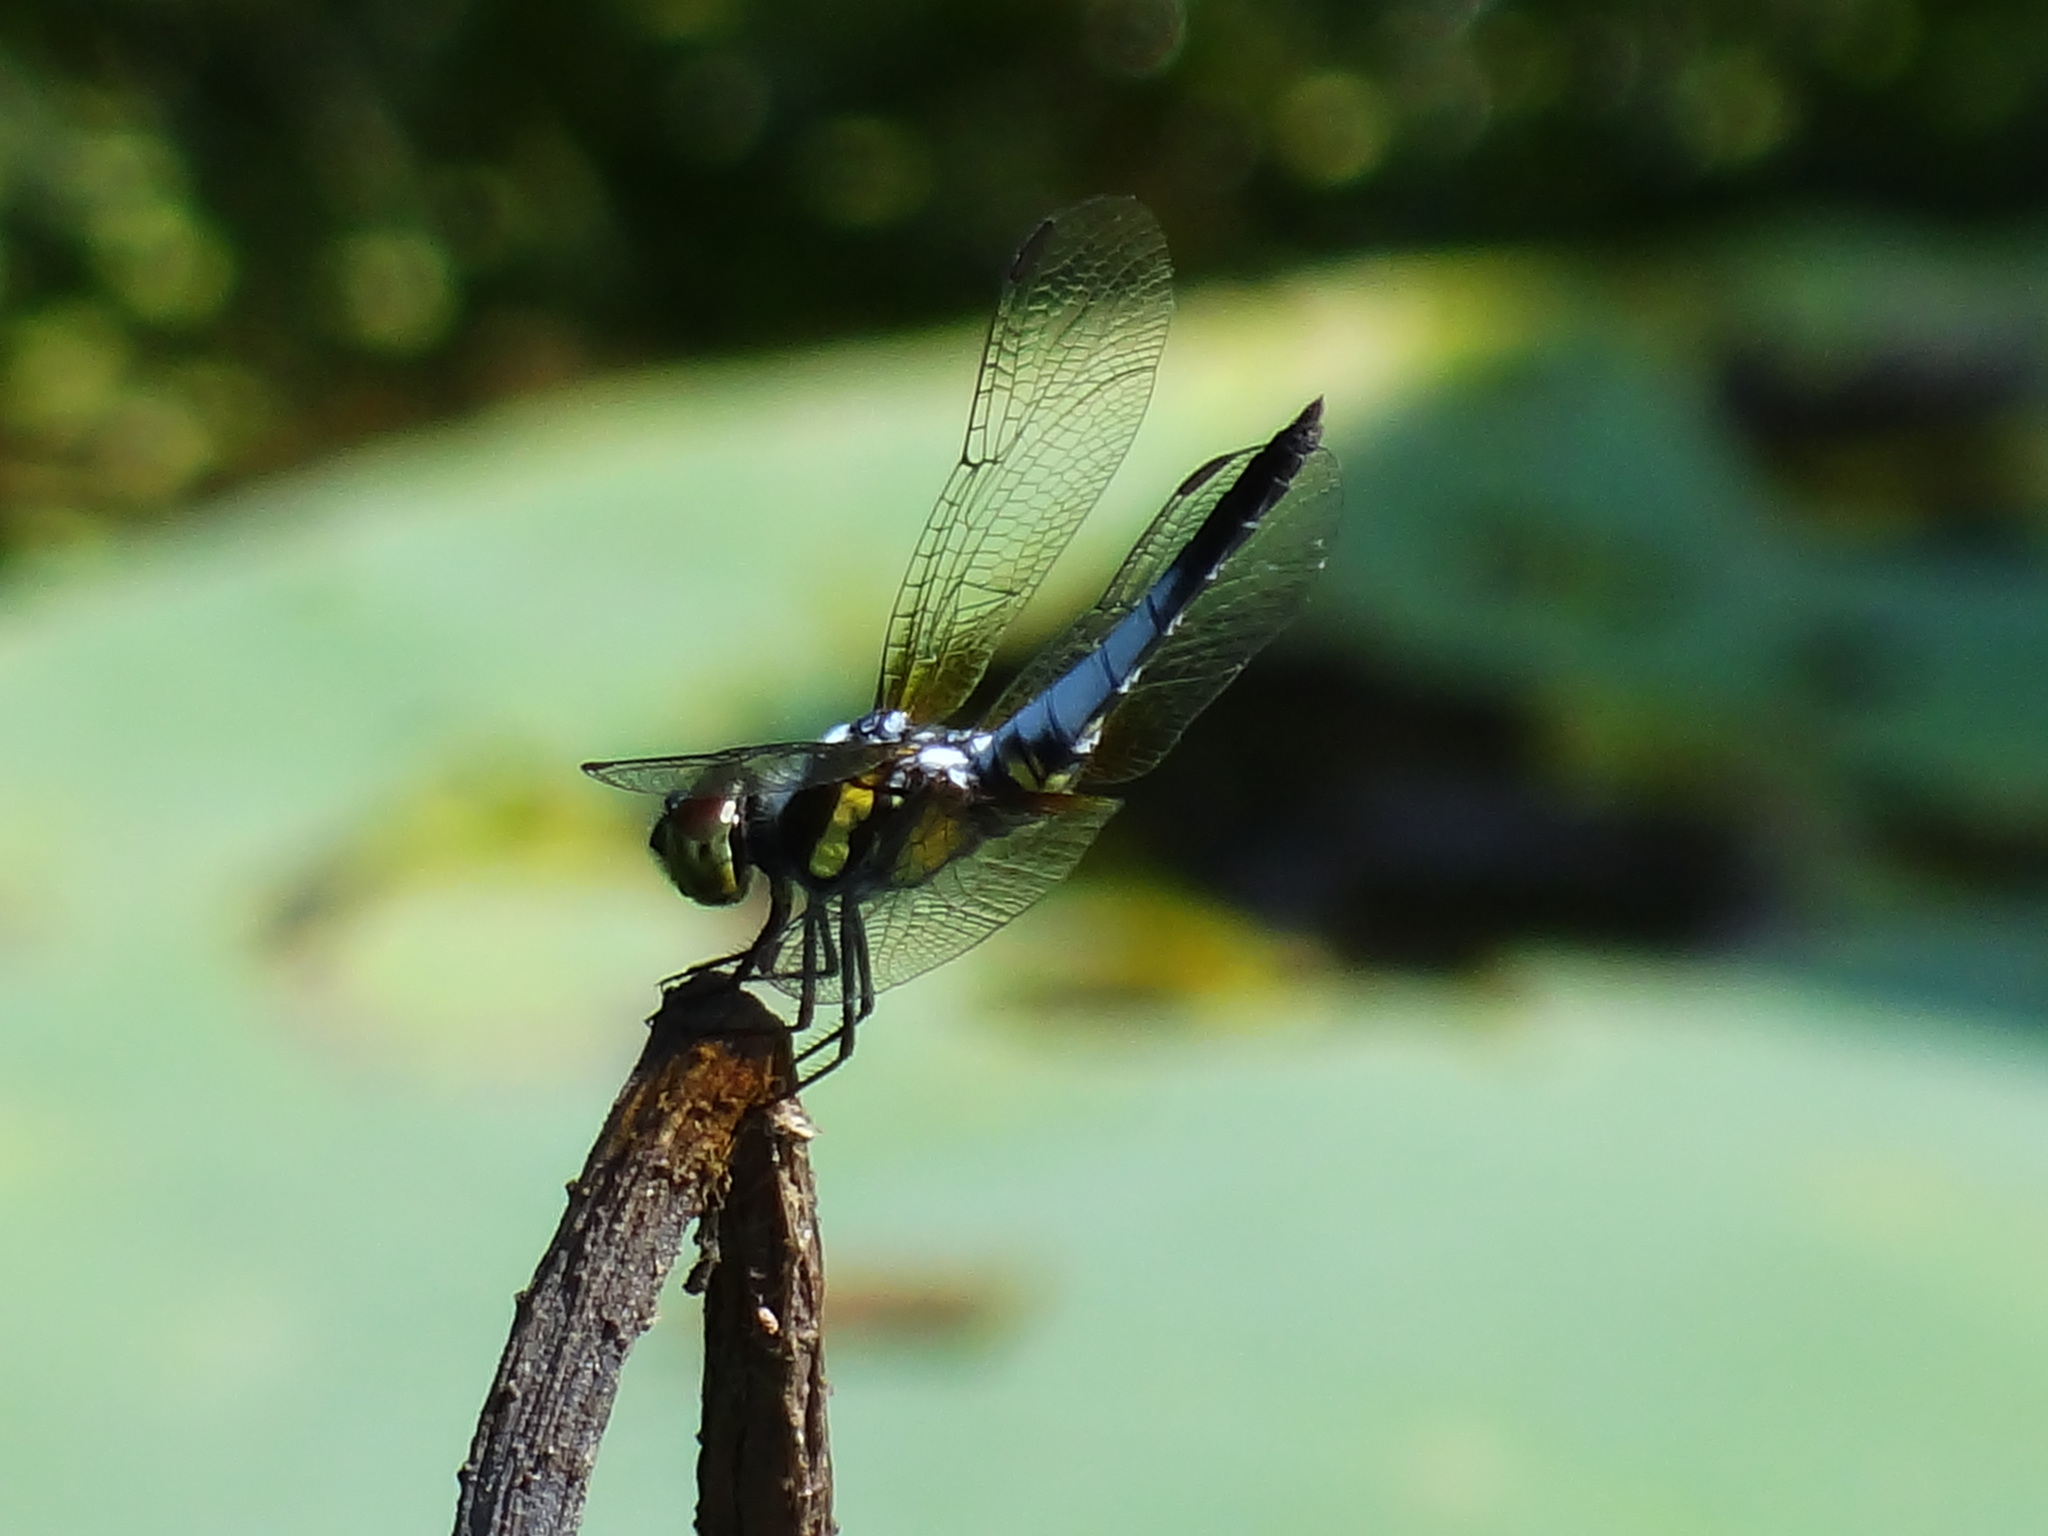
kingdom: Animalia
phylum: Arthropoda
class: Insecta
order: Odonata
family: Libellulidae
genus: Brachydiplax
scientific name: Brachydiplax chalybea
